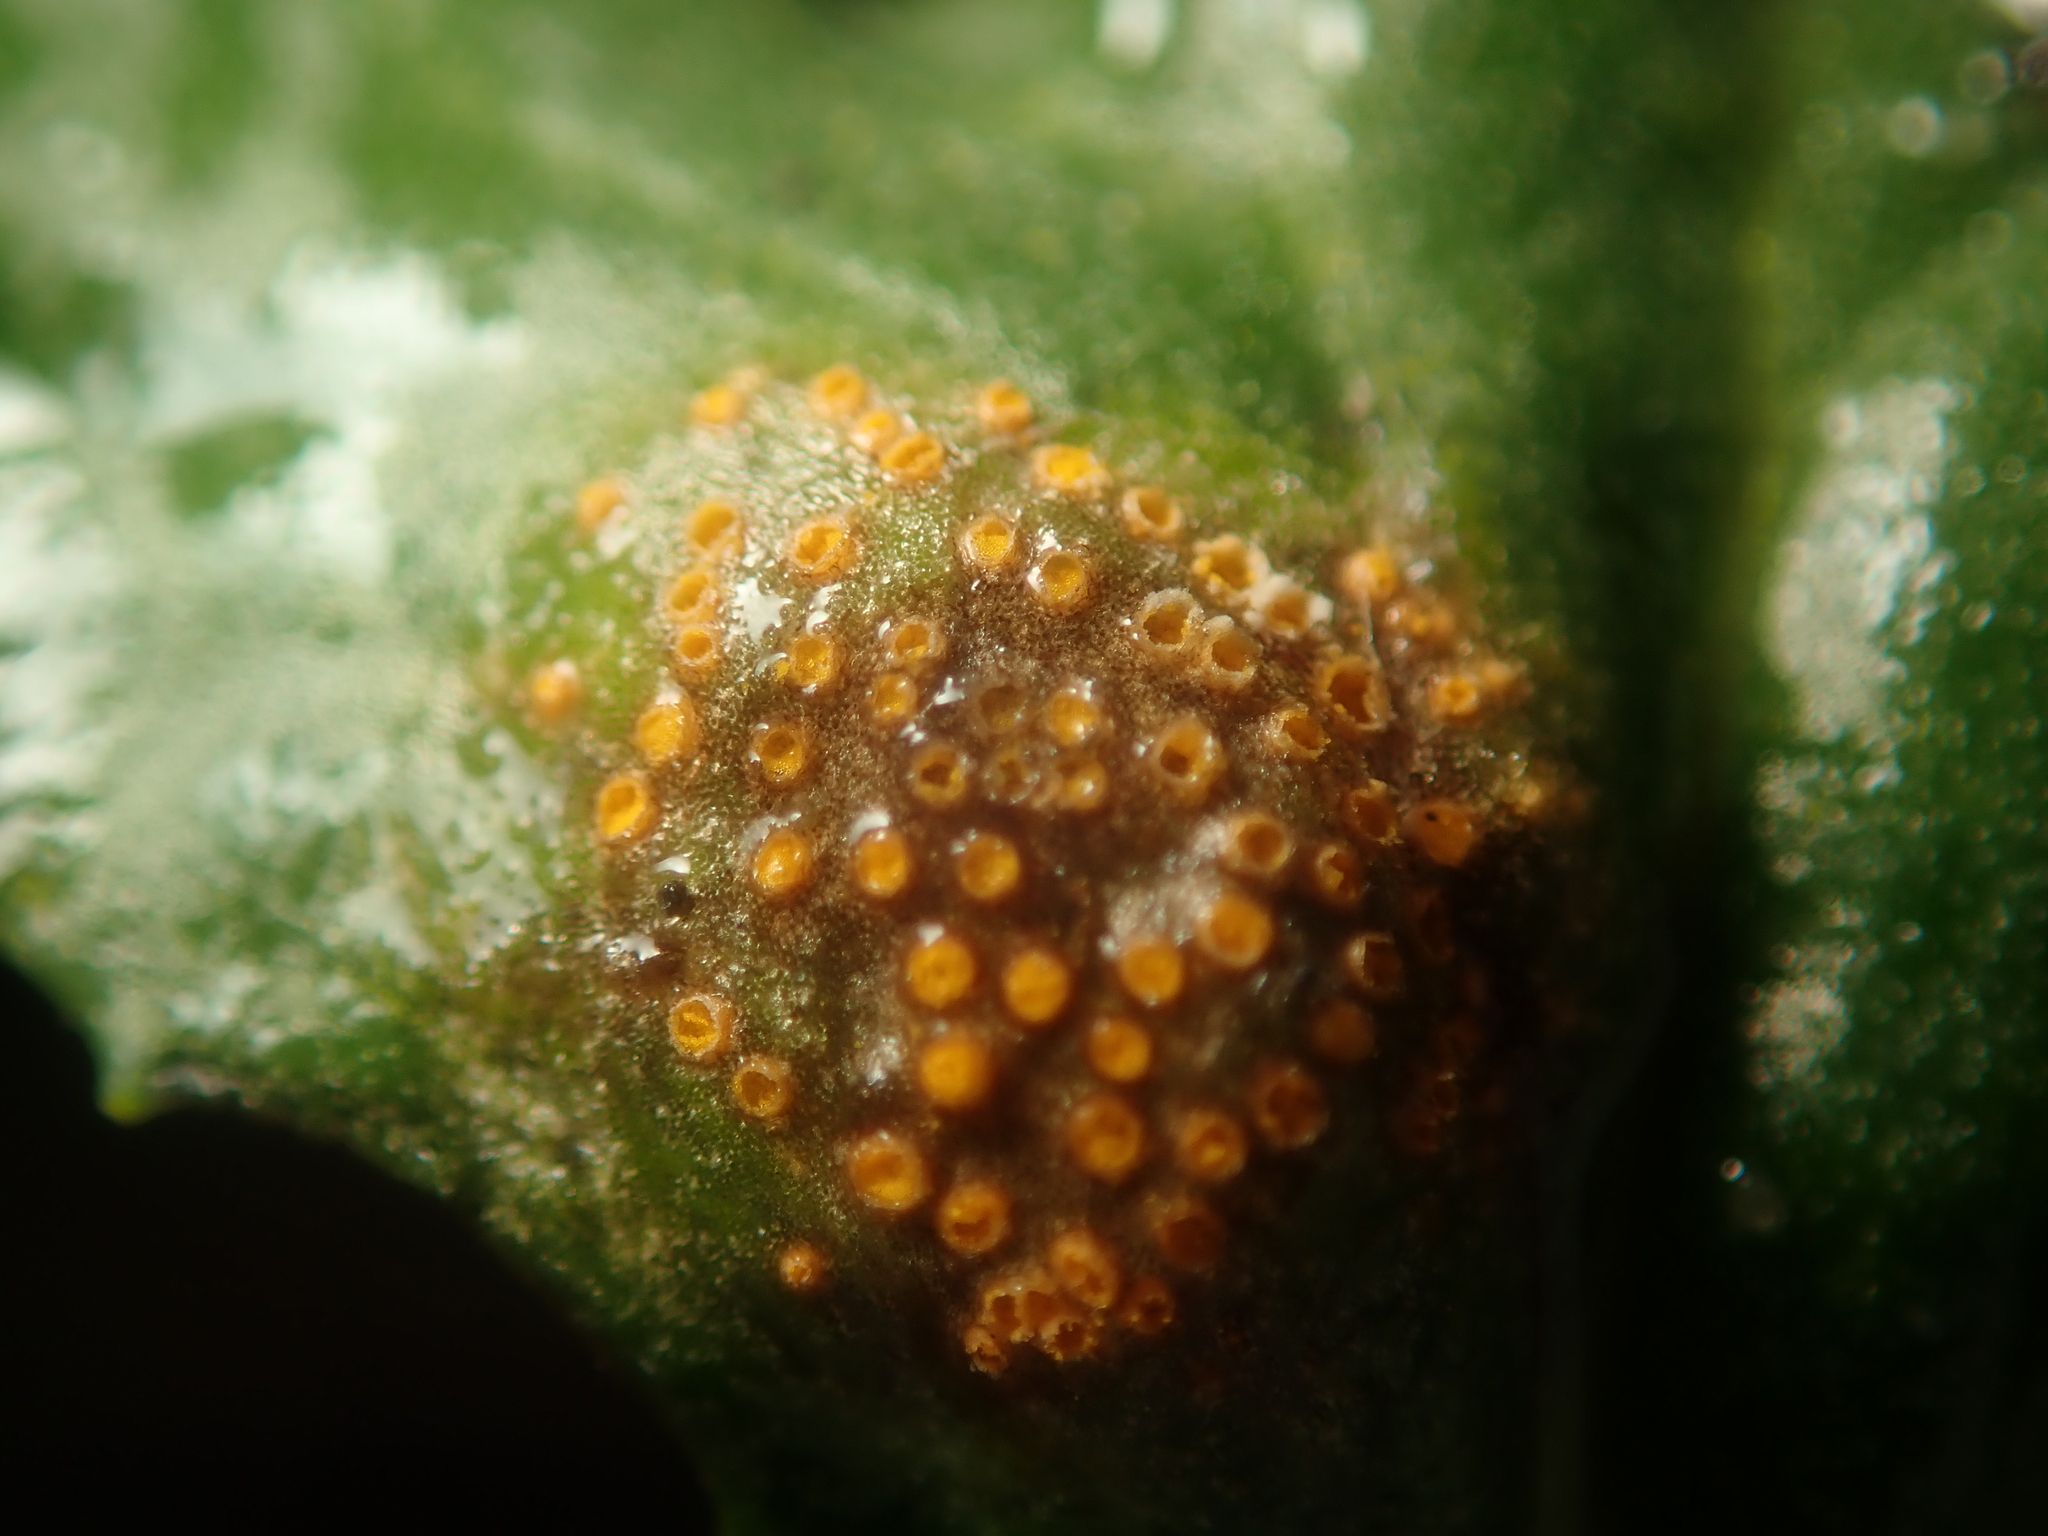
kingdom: Fungi
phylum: Basidiomycota
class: Pucciniomycetes
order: Pucciniales
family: Pucciniaceae
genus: Puccinia
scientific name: Puccinia lagenophorae
